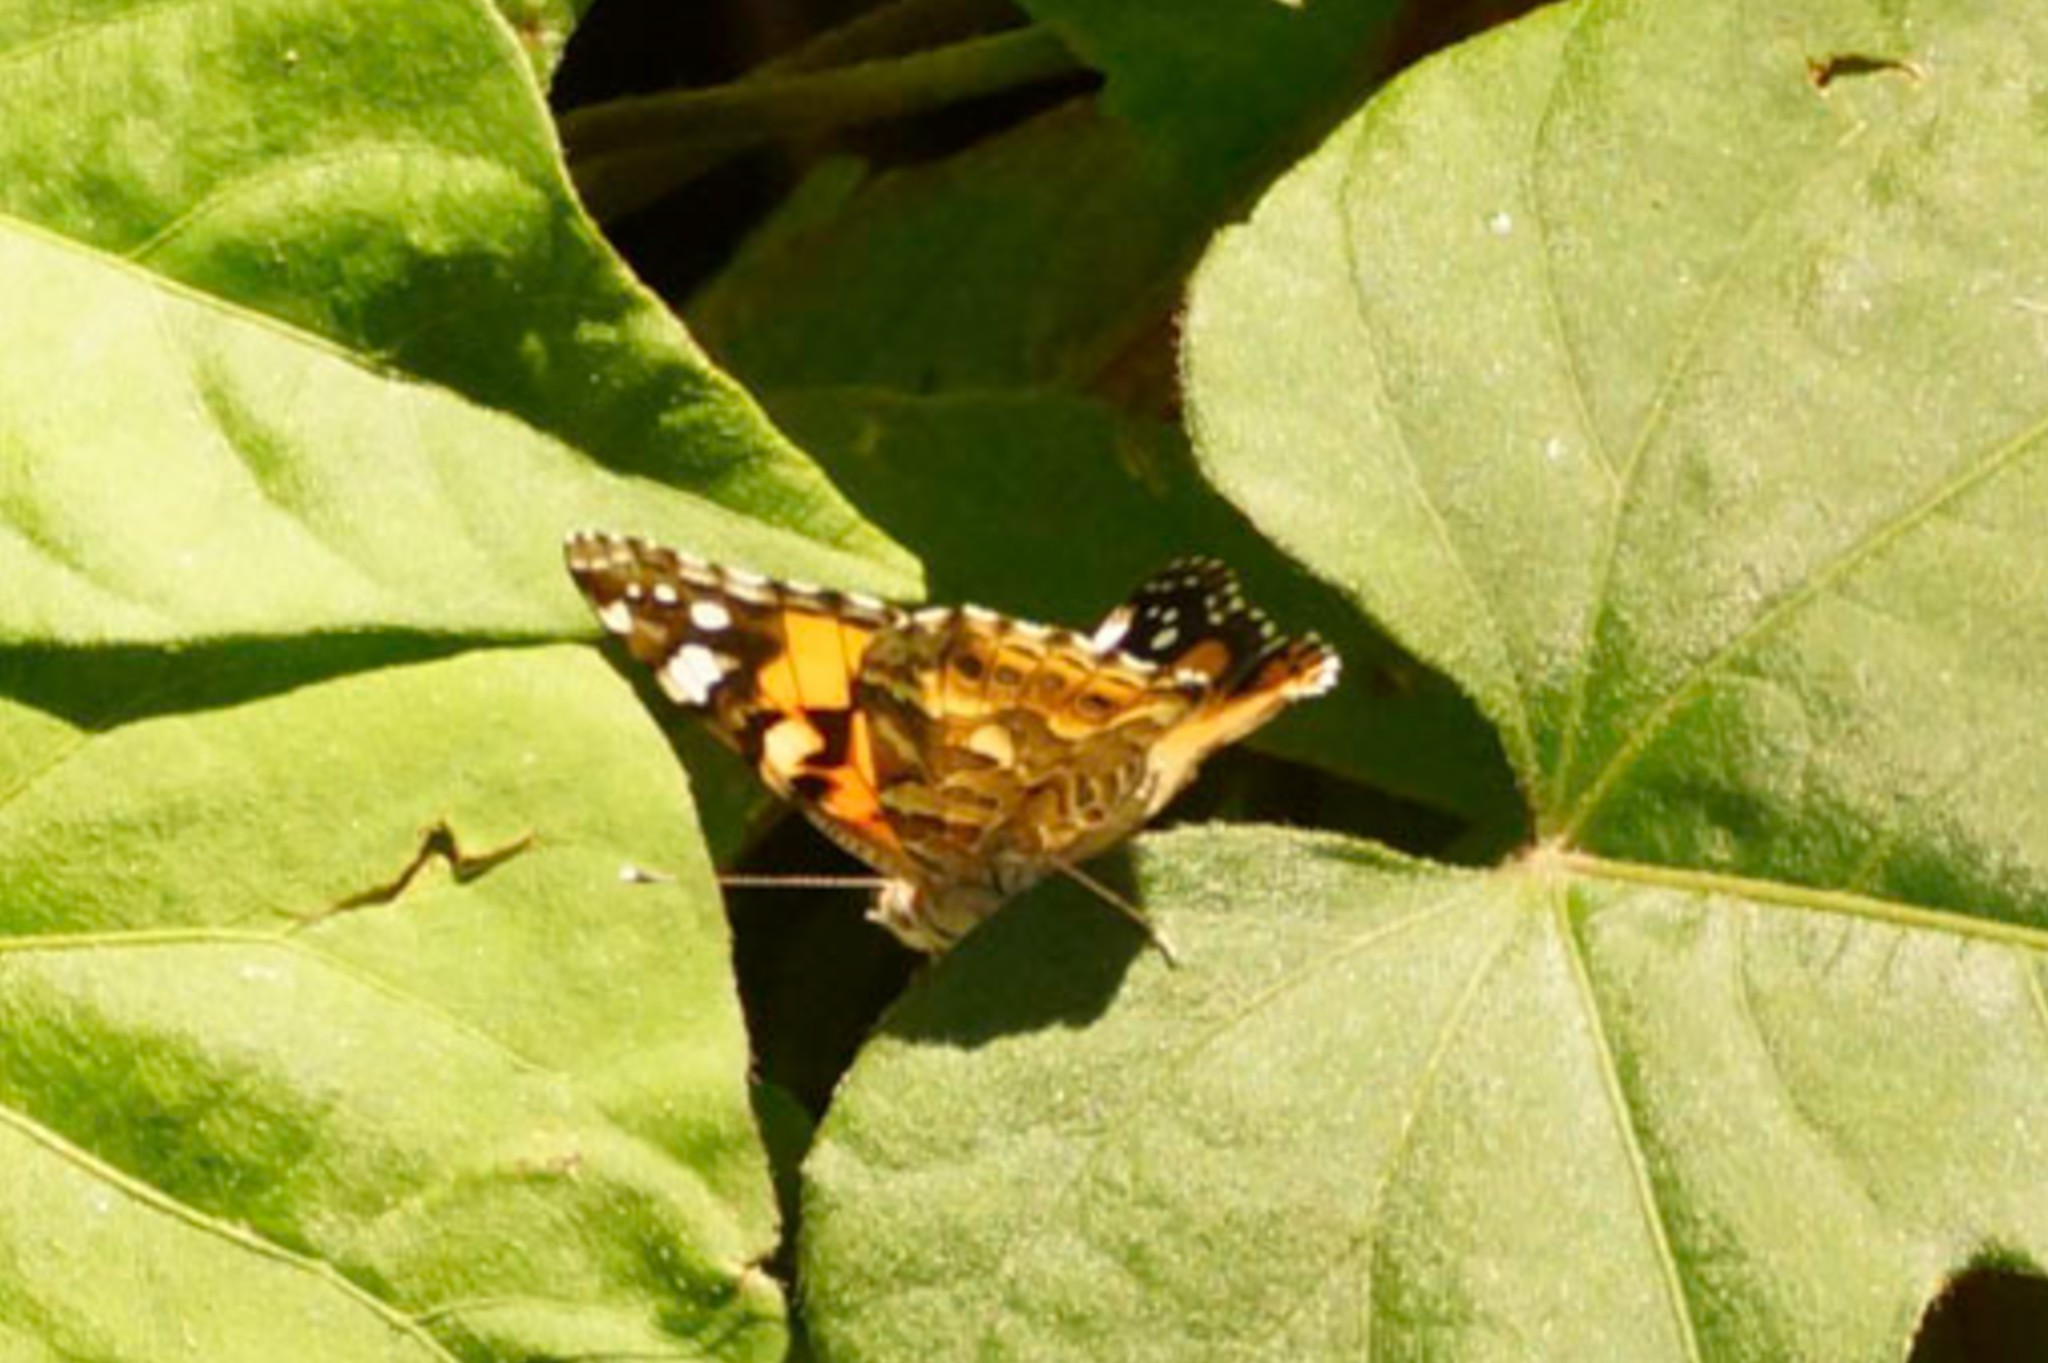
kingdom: Animalia
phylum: Arthropoda
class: Insecta
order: Lepidoptera
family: Nymphalidae
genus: Vanessa
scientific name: Vanessa kershawi
